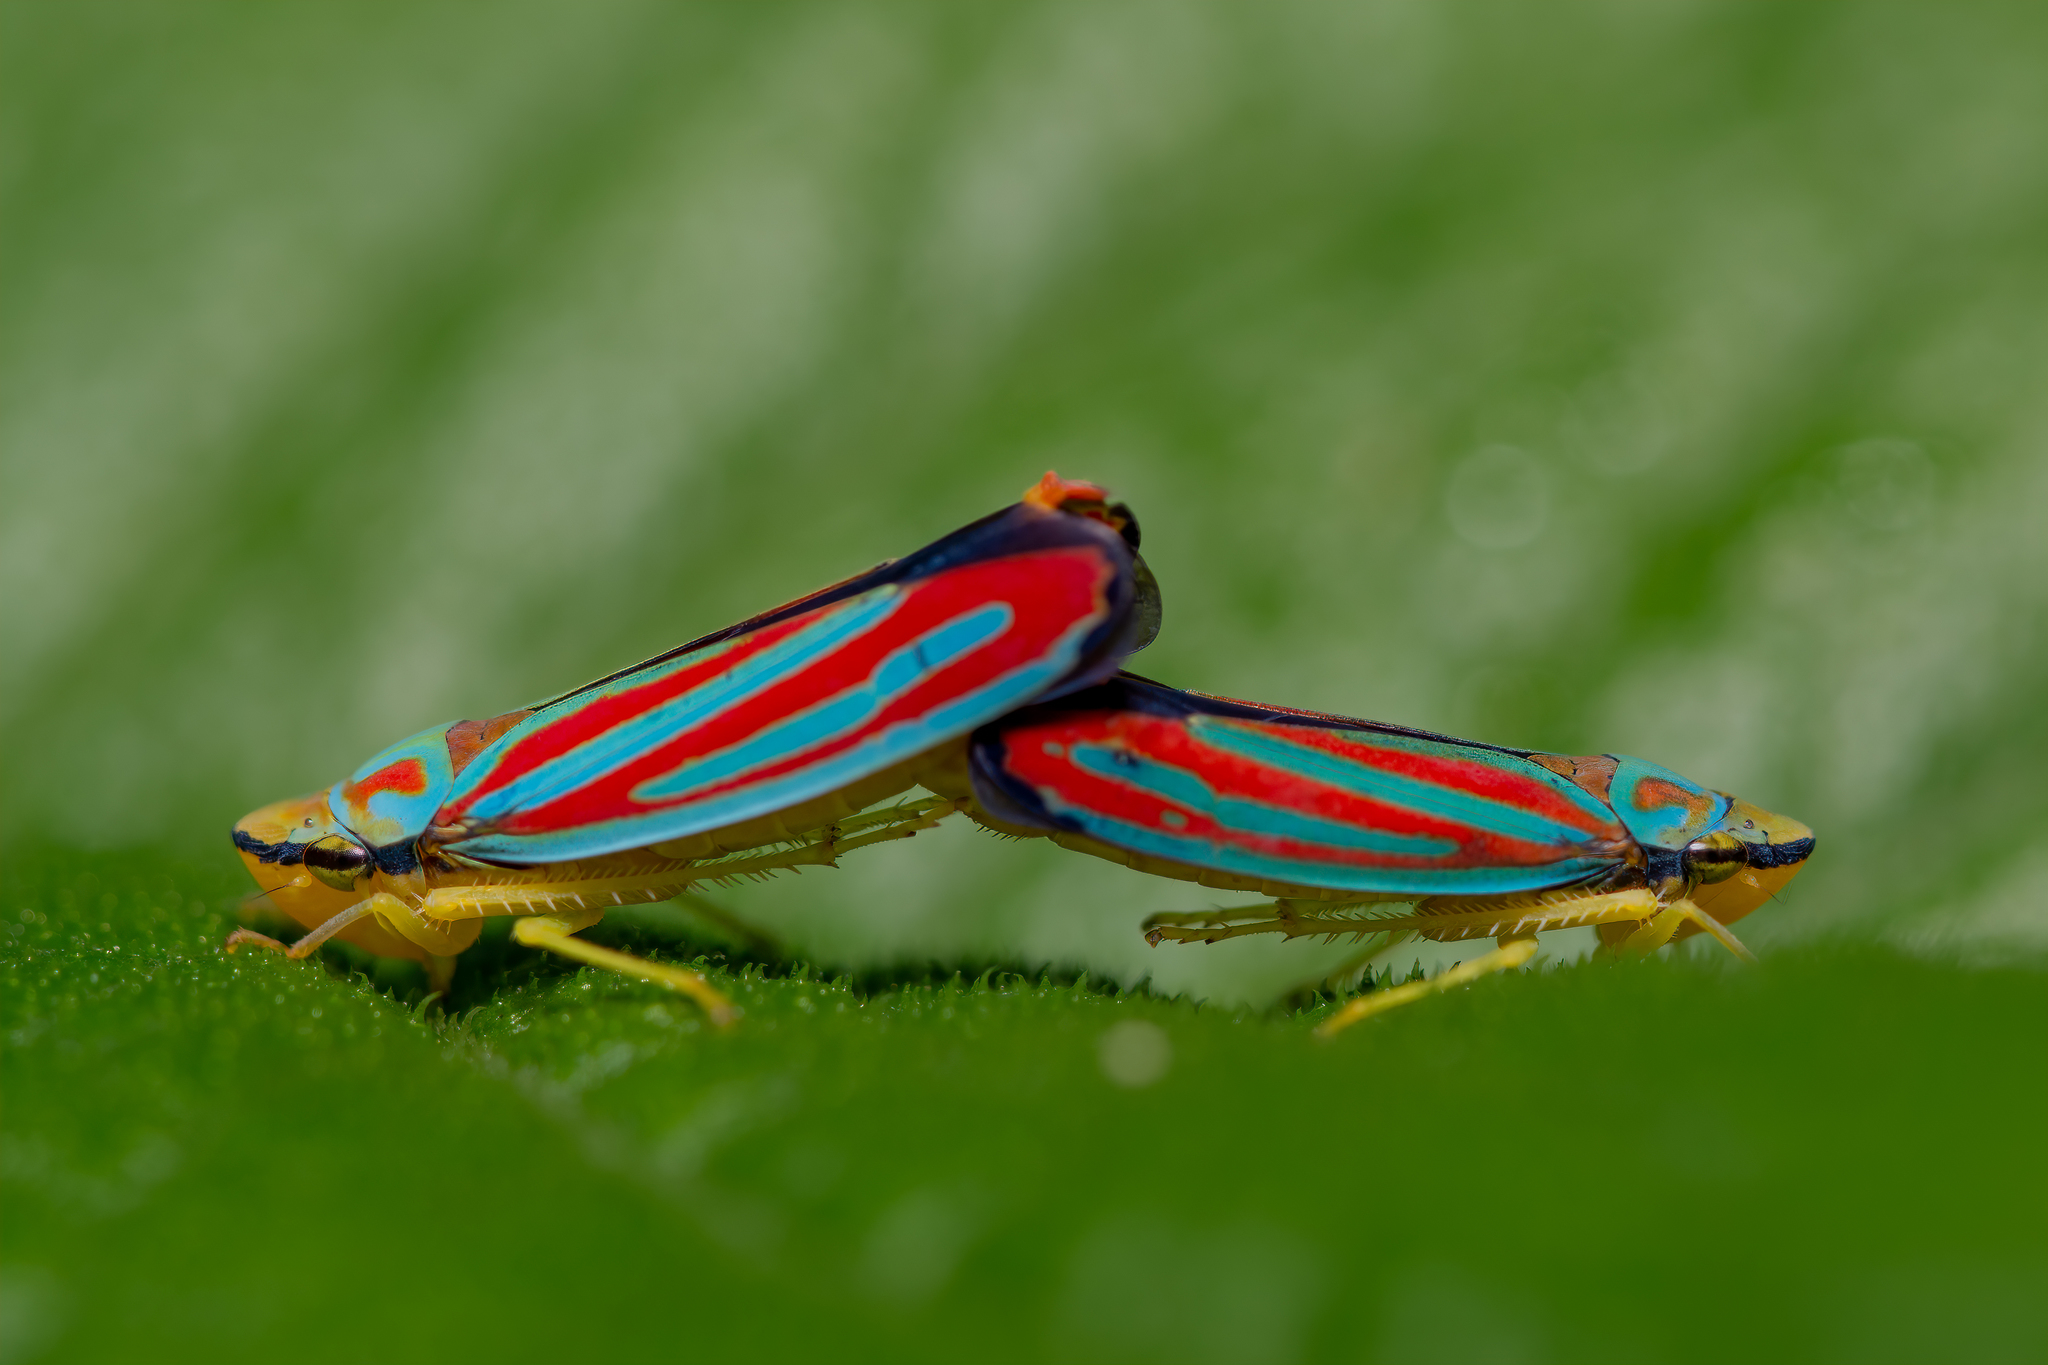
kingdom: Animalia
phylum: Arthropoda
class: Insecta
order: Hemiptera
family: Cicadellidae
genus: Graphocephala
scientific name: Graphocephala coccinea
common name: Candy-striped leafhopper
